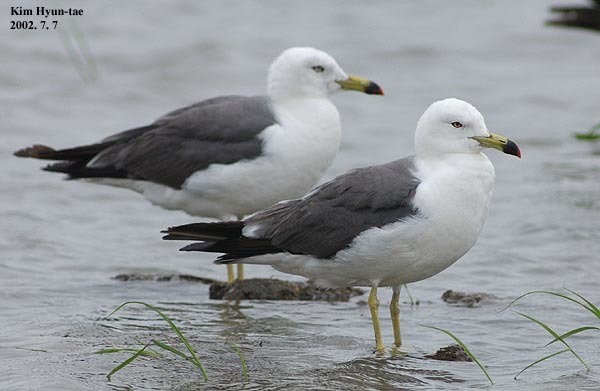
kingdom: Animalia
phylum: Chordata
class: Aves
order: Charadriiformes
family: Laridae
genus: Larus
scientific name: Larus crassirostris
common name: Black-tailed gull
